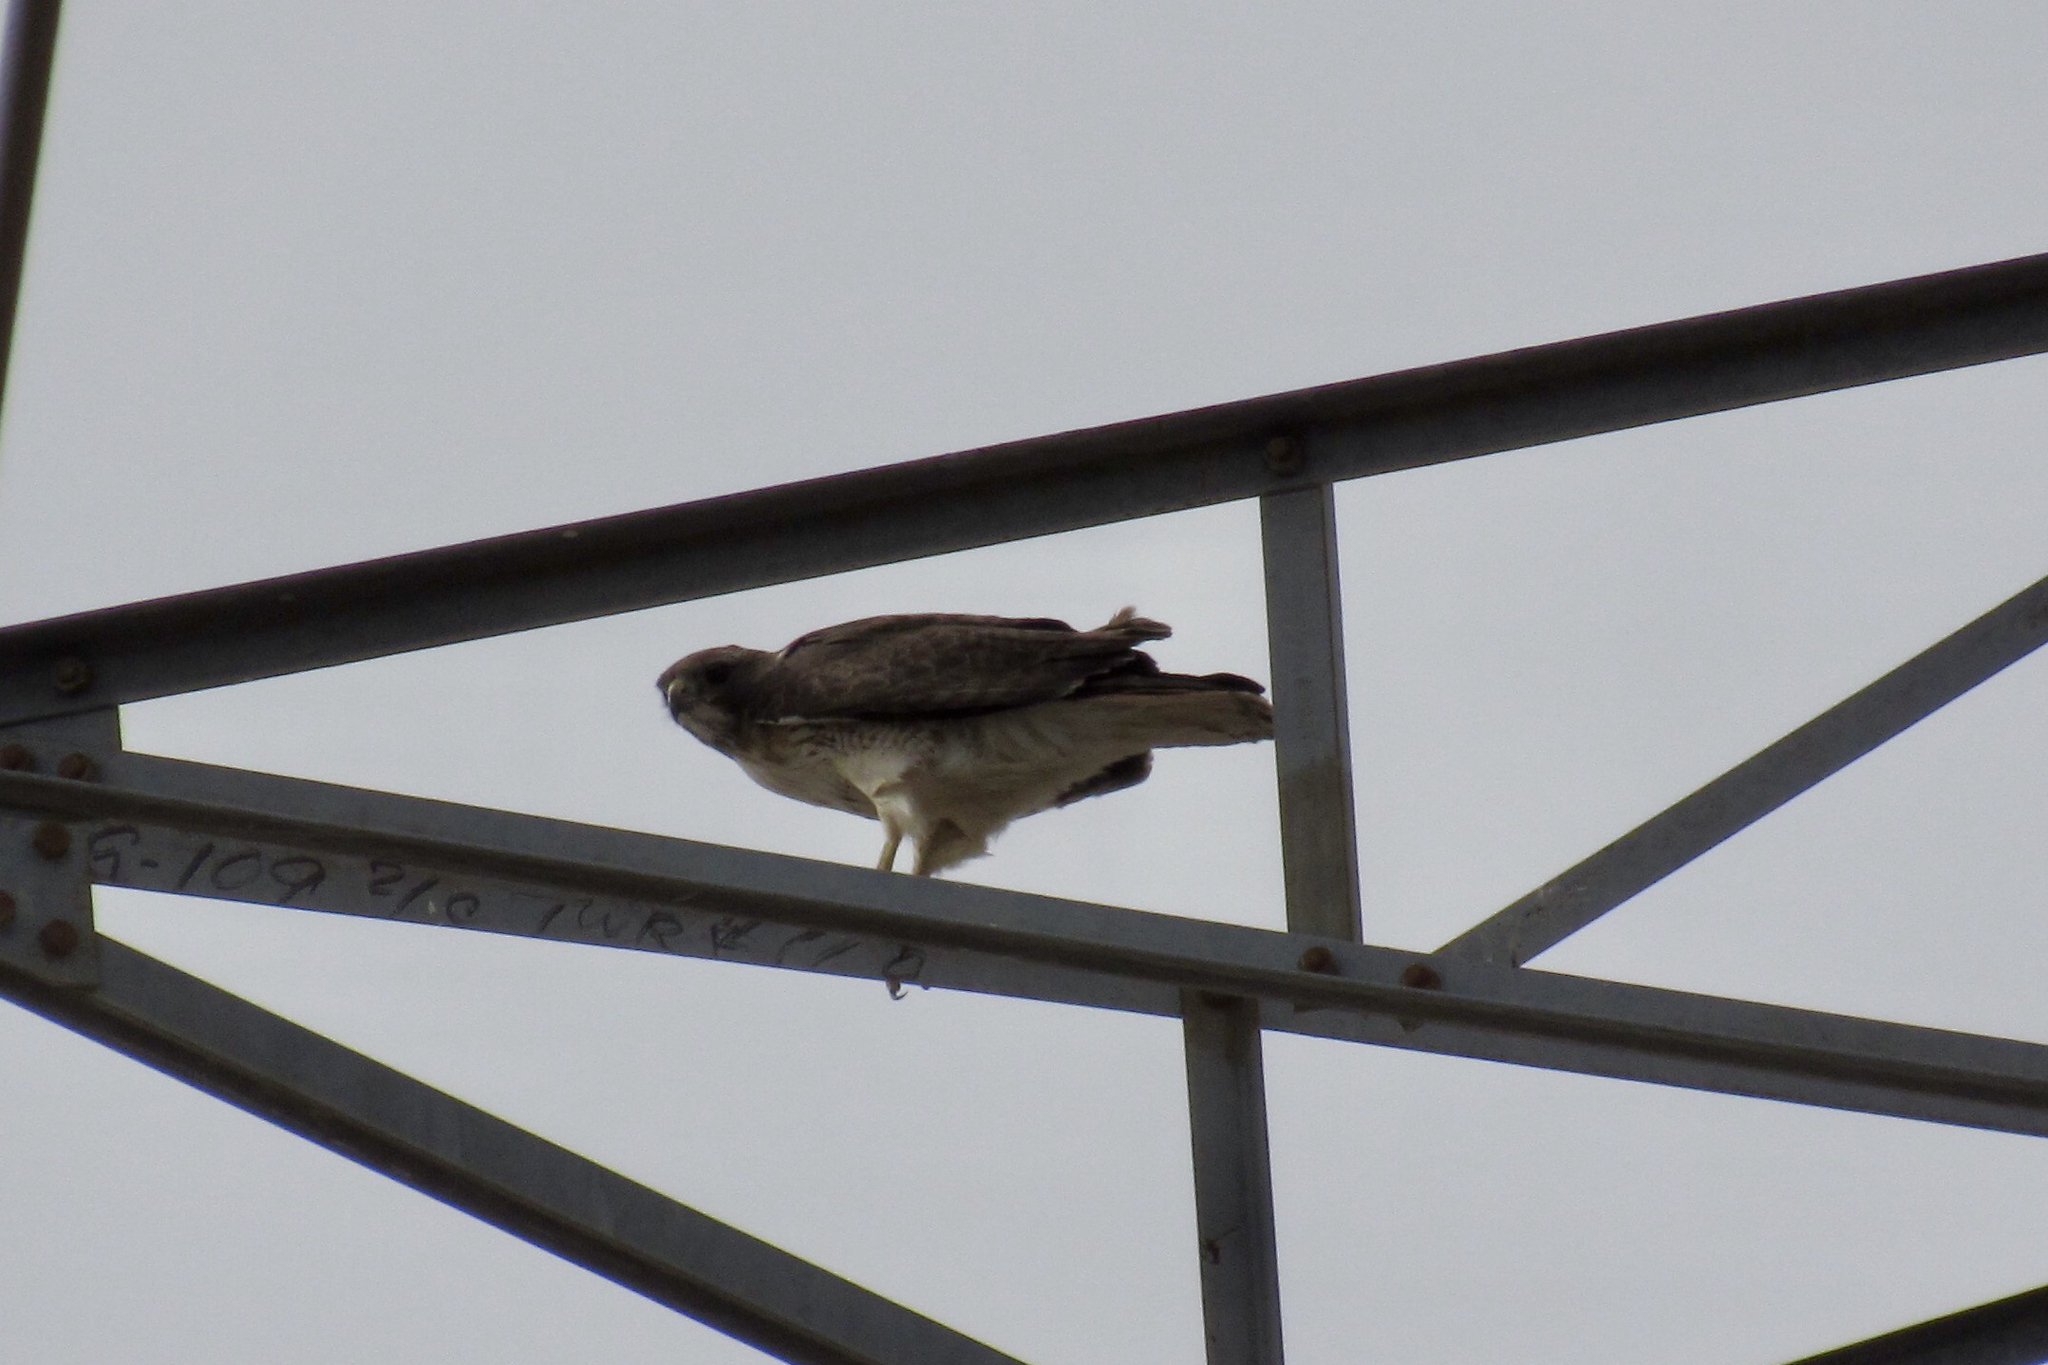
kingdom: Animalia
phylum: Chordata
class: Aves
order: Accipitriformes
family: Accipitridae
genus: Buteo
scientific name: Buteo jamaicensis
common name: Red-tailed hawk
